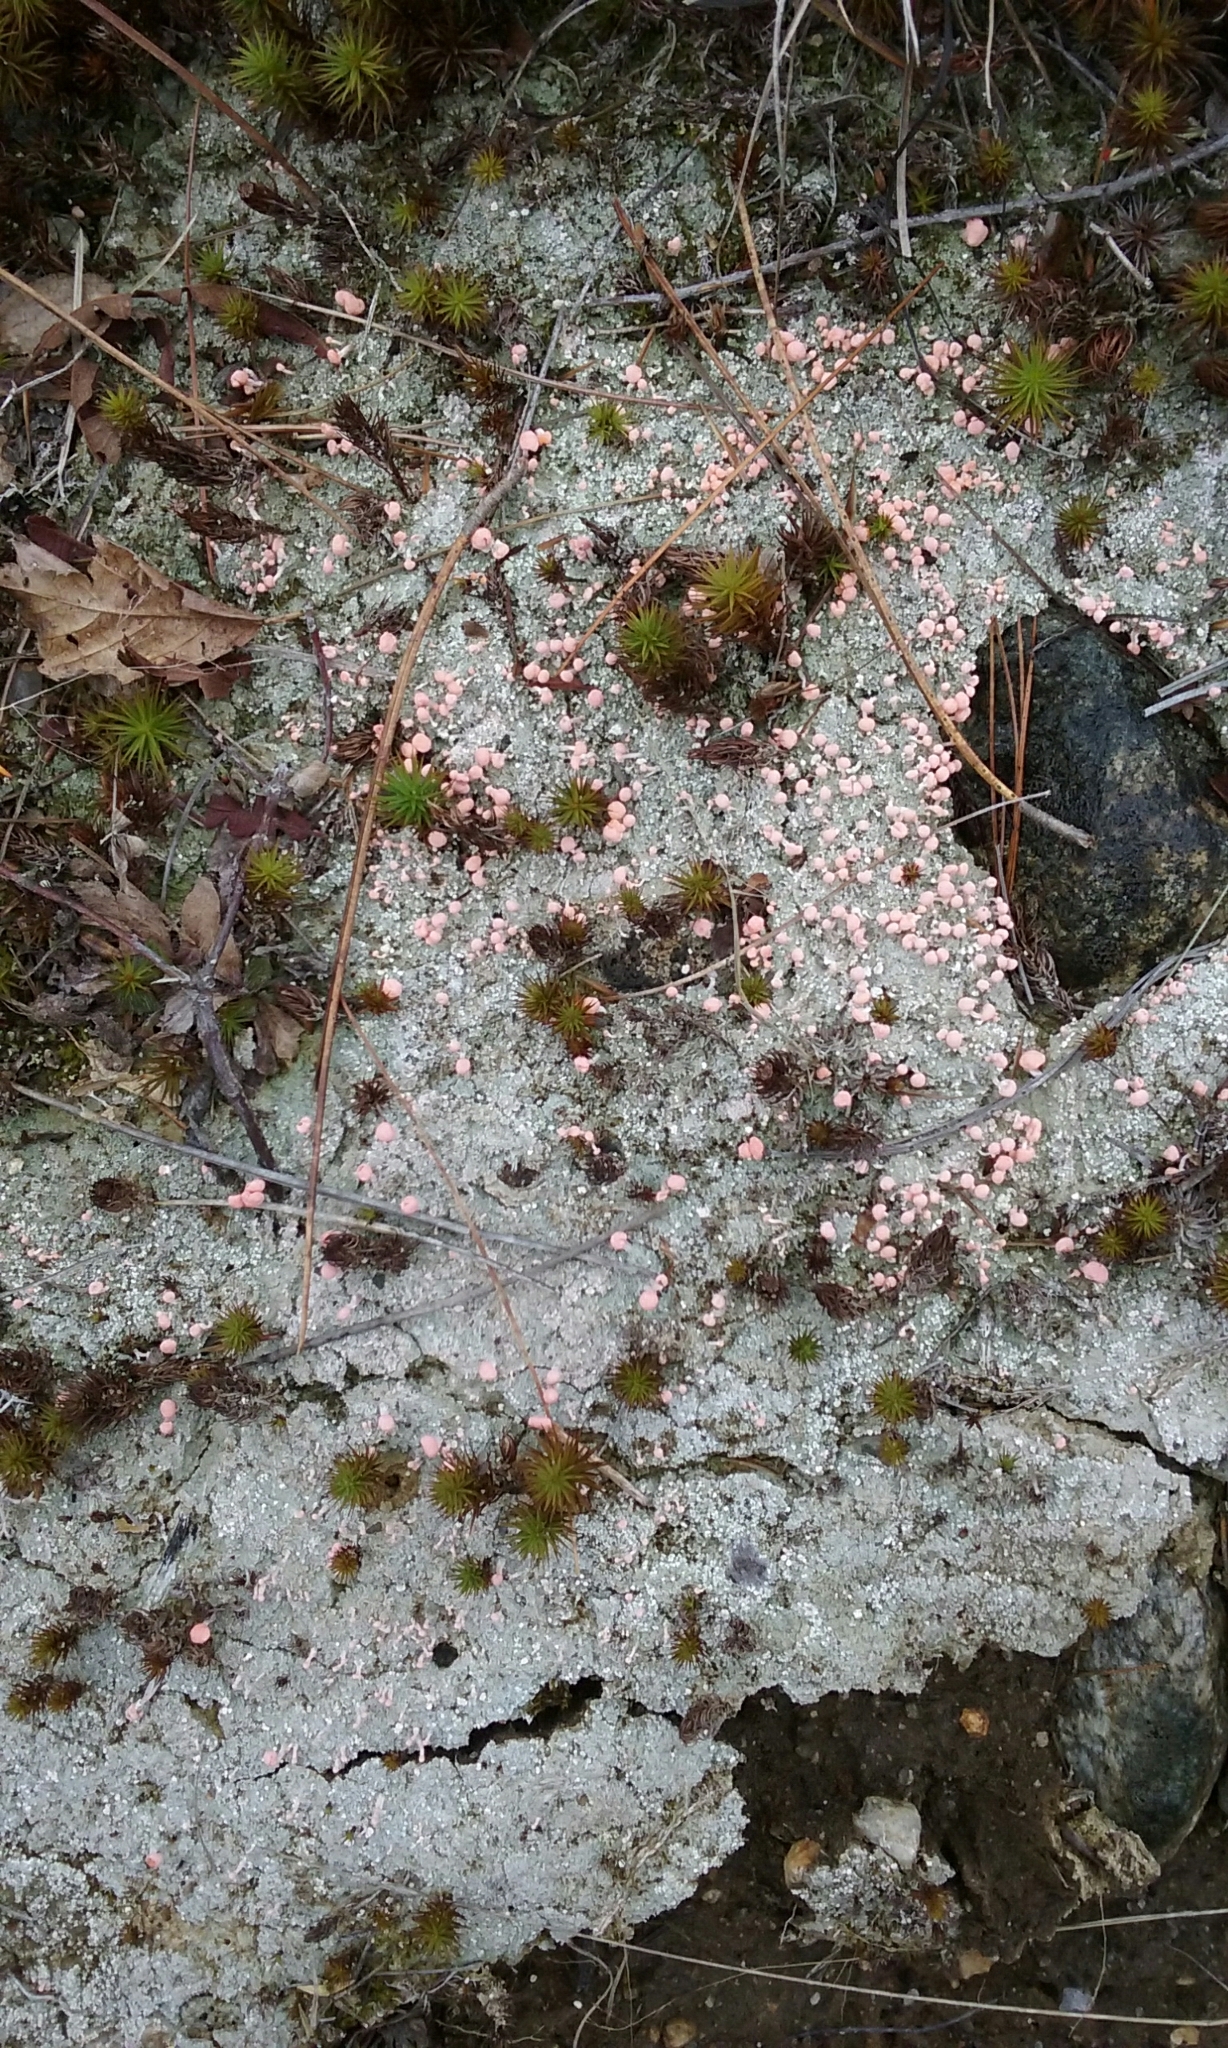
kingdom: Fungi
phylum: Ascomycota
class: Lecanoromycetes
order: Pertusariales
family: Icmadophilaceae
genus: Dibaeis
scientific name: Dibaeis baeomyces
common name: Pink earth lichen
